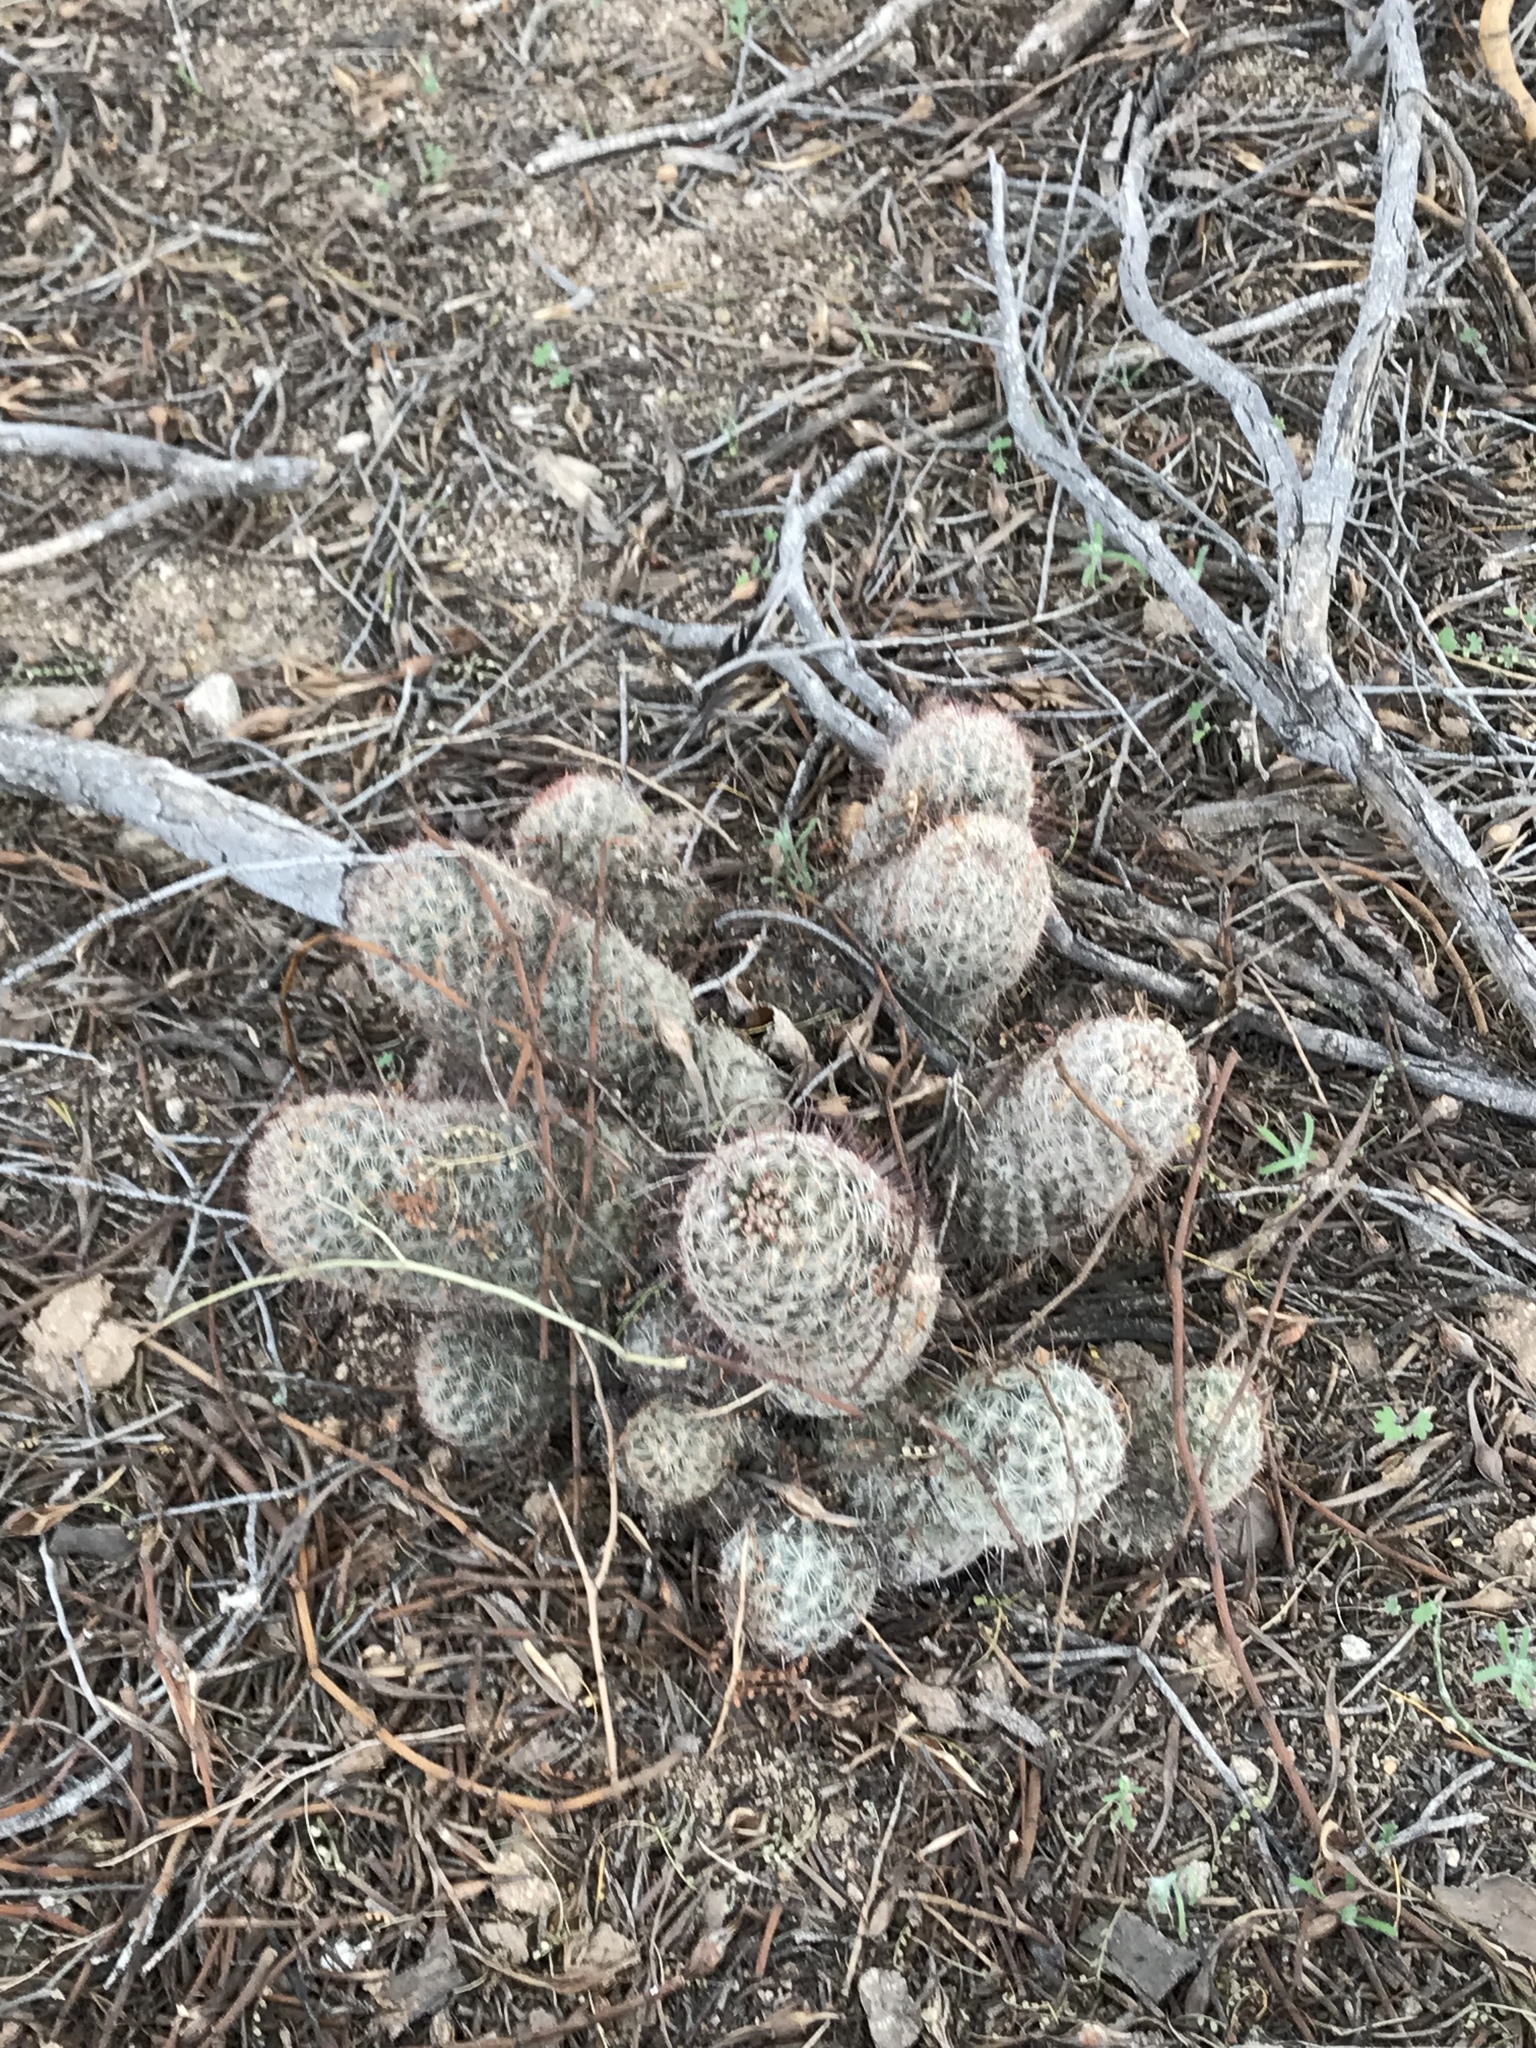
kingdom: Plantae
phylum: Tracheophyta
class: Magnoliopsida
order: Caryophyllales
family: Cactaceae
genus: Cochemiea
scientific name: Cochemiea grahamii
